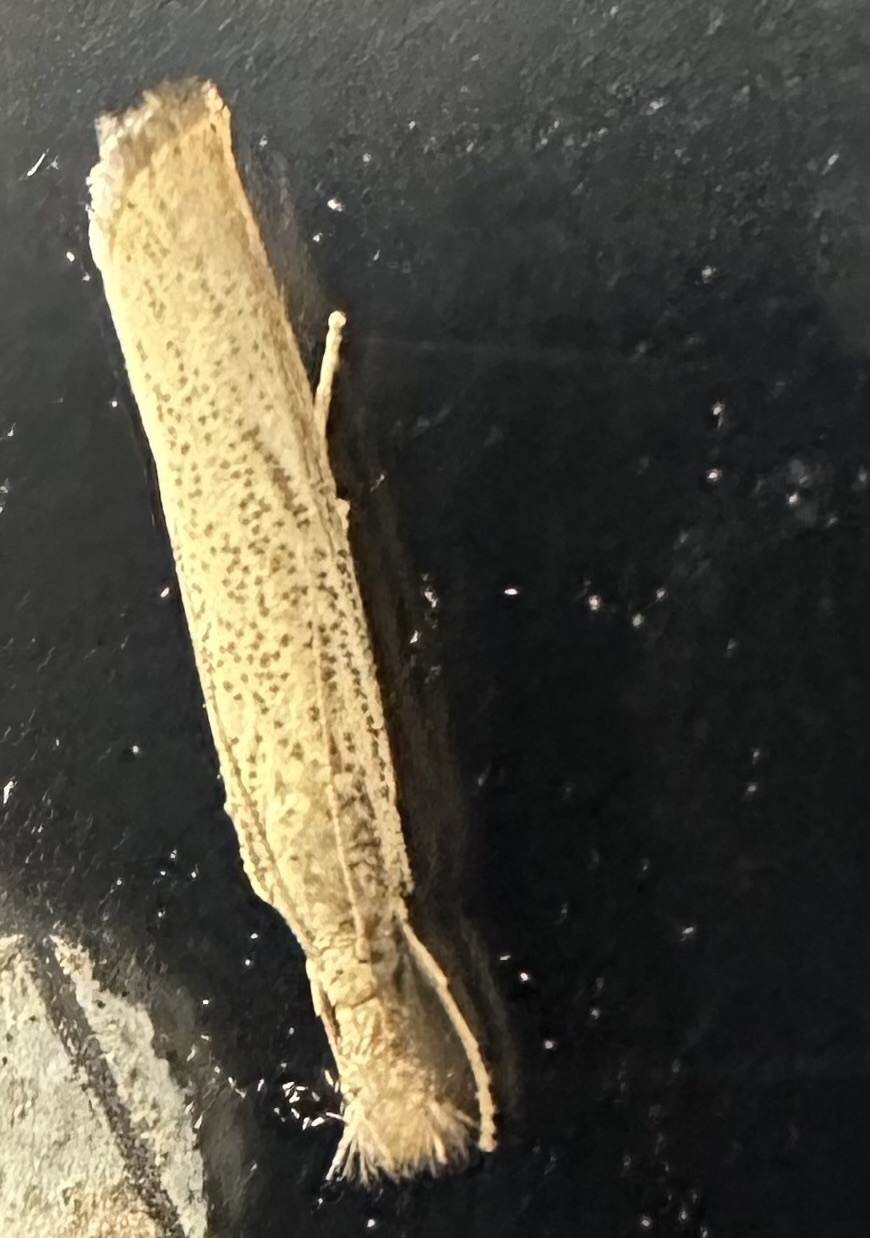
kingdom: Animalia
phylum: Arthropoda
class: Insecta
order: Lepidoptera
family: Crambidae
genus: Agriphila
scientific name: Agriphila vulgivagellus
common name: Vagabond crambus moth
